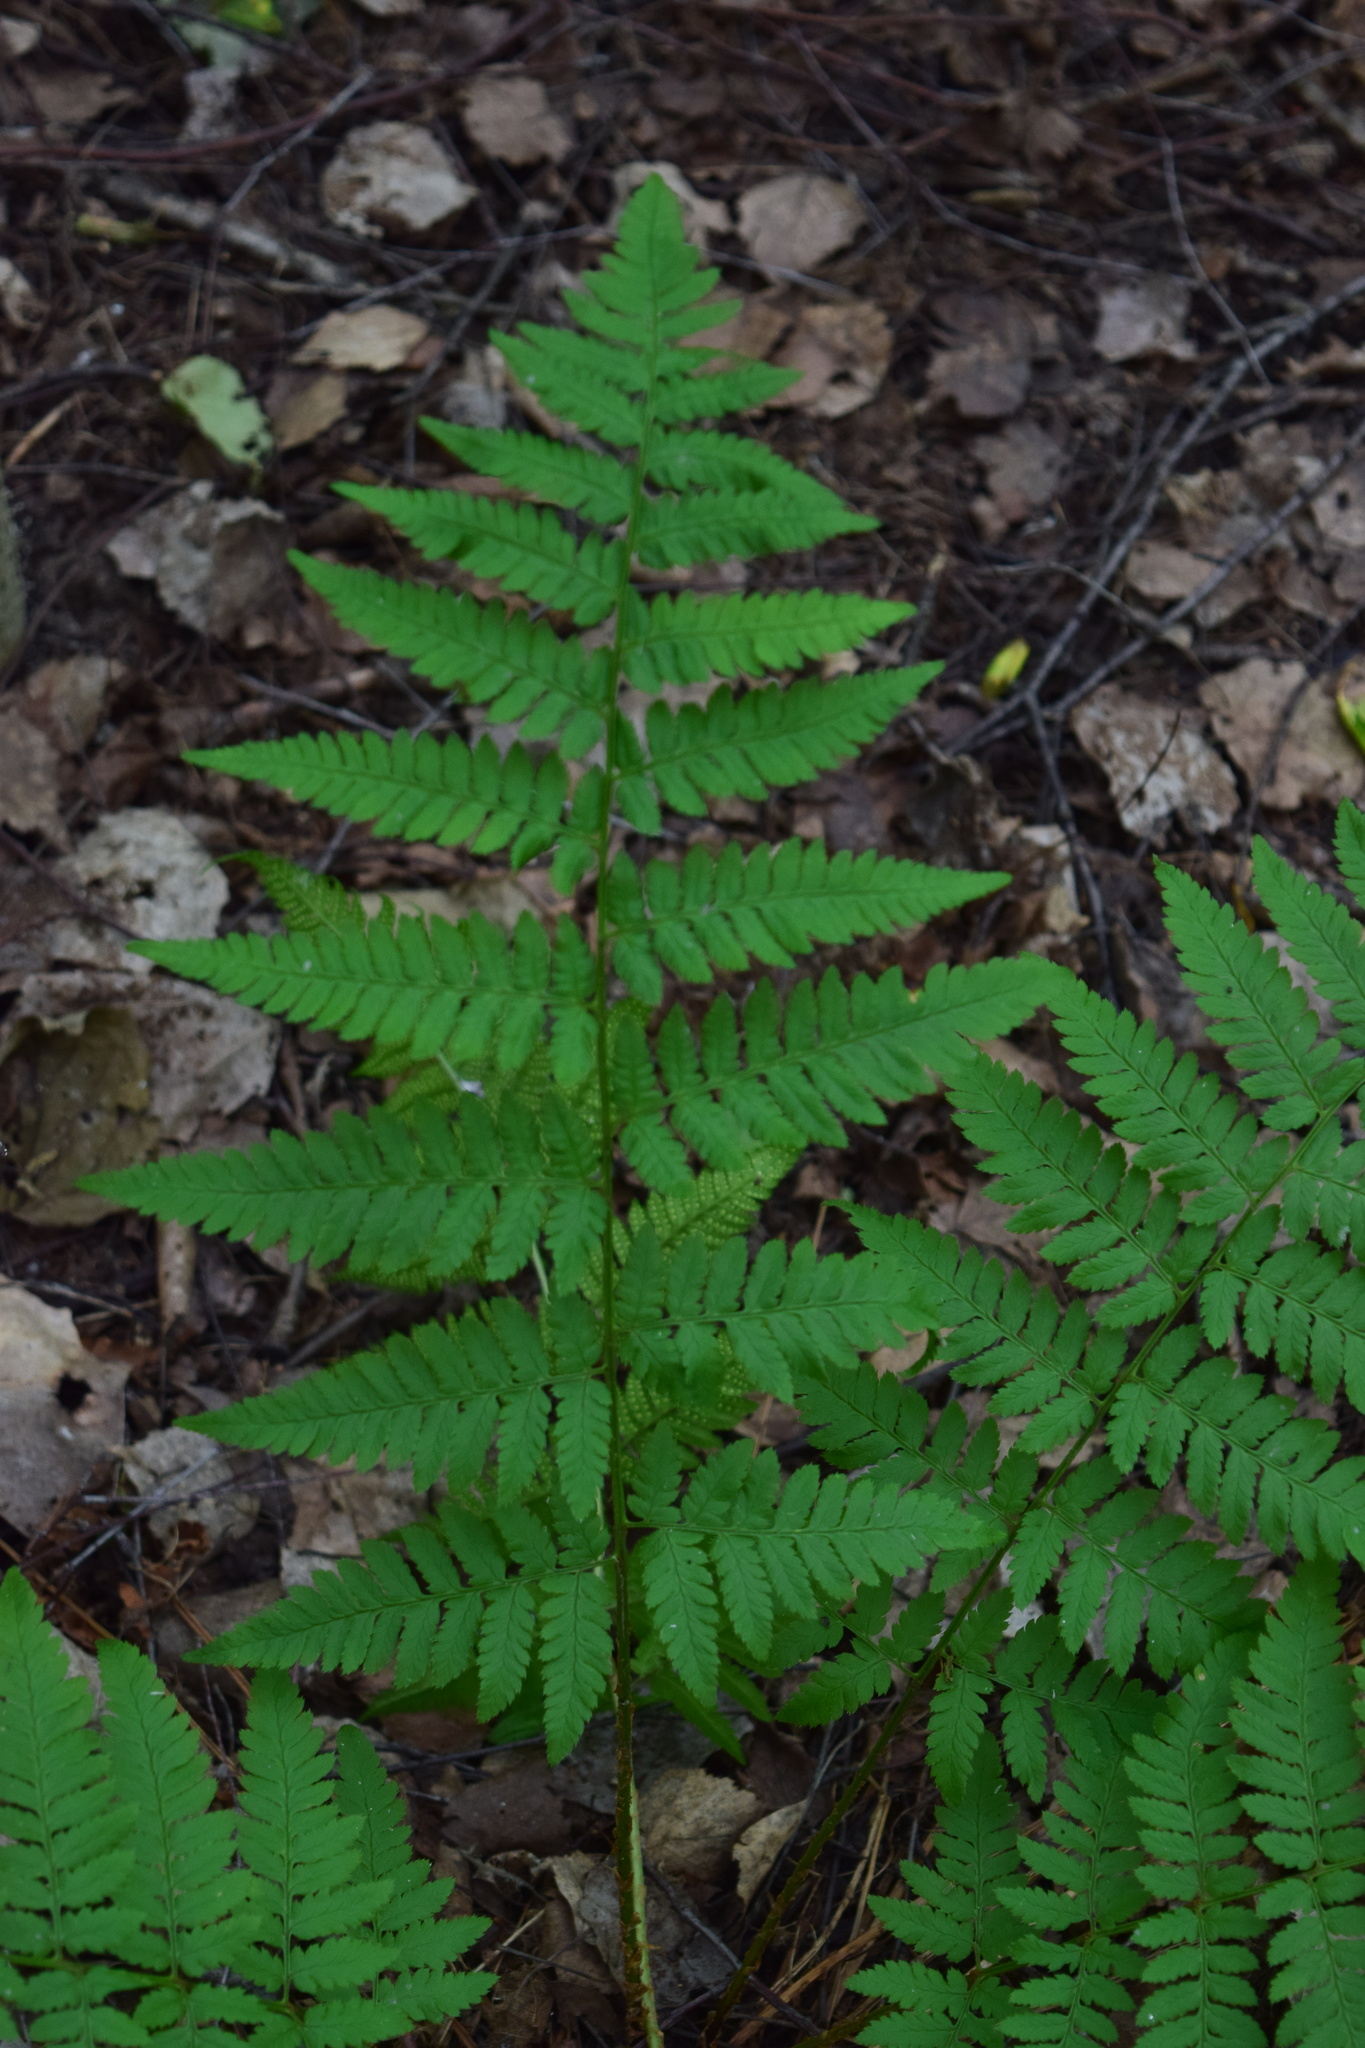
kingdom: Plantae
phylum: Tracheophyta
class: Polypodiopsida
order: Polypodiales
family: Dryopteridaceae
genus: Dryopteris
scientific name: Dryopteris carthusiana
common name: Narrow buckler-fern
